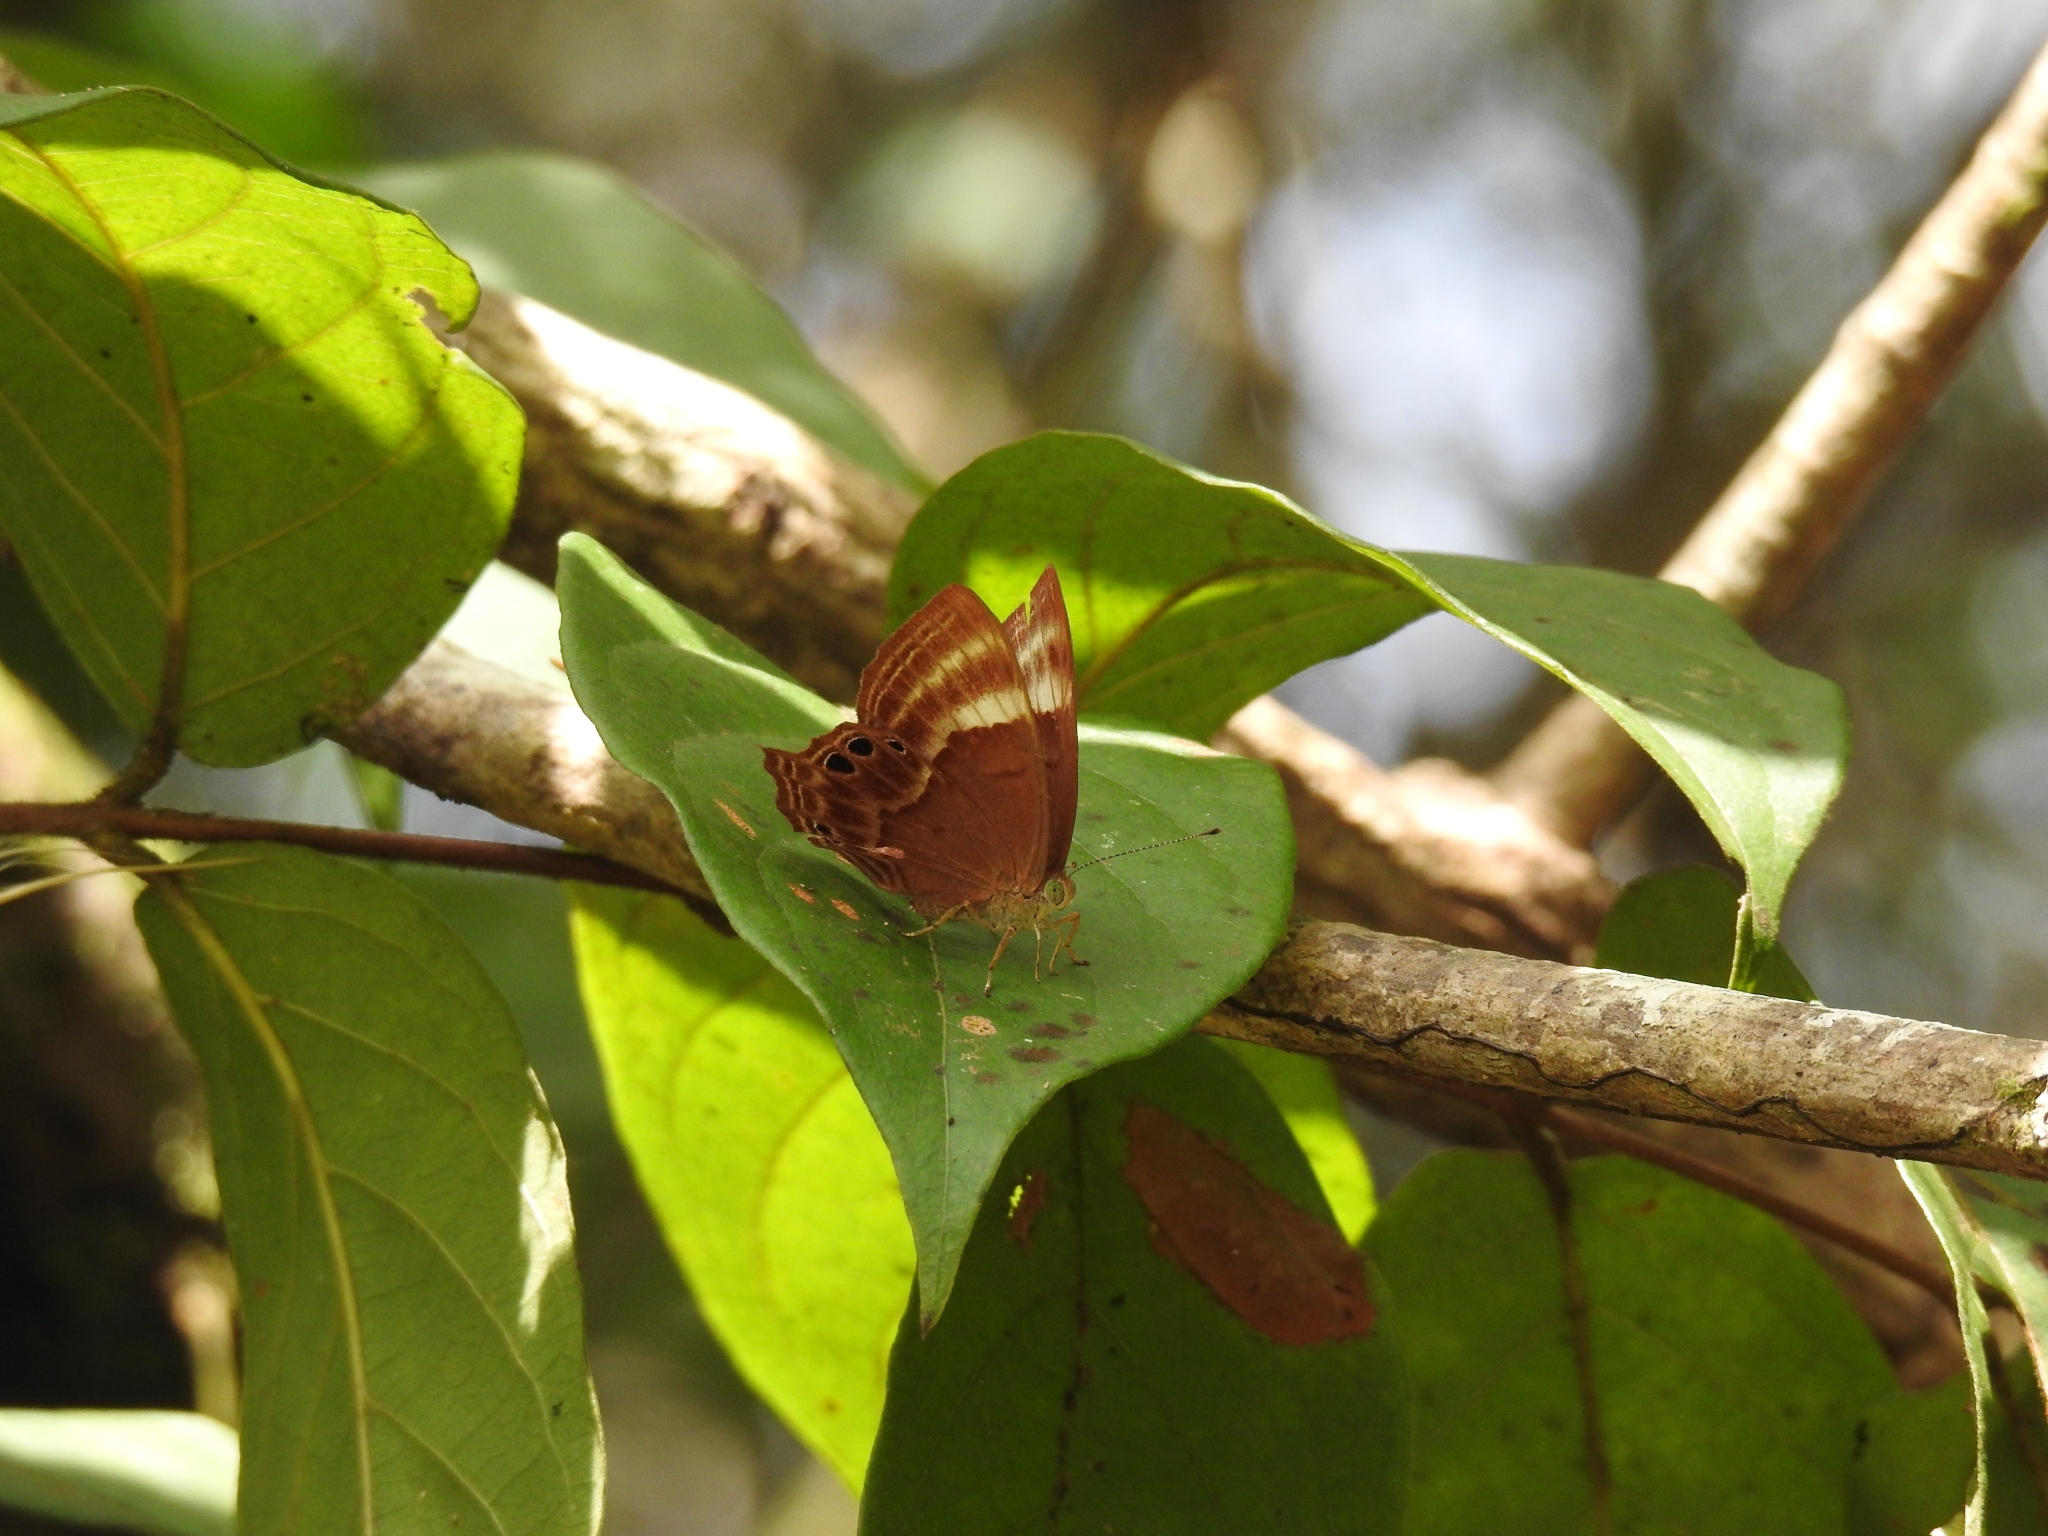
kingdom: Animalia
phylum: Arthropoda
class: Insecta
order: Lepidoptera
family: Lycaenidae
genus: Abisara
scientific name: Abisara bifasciata
